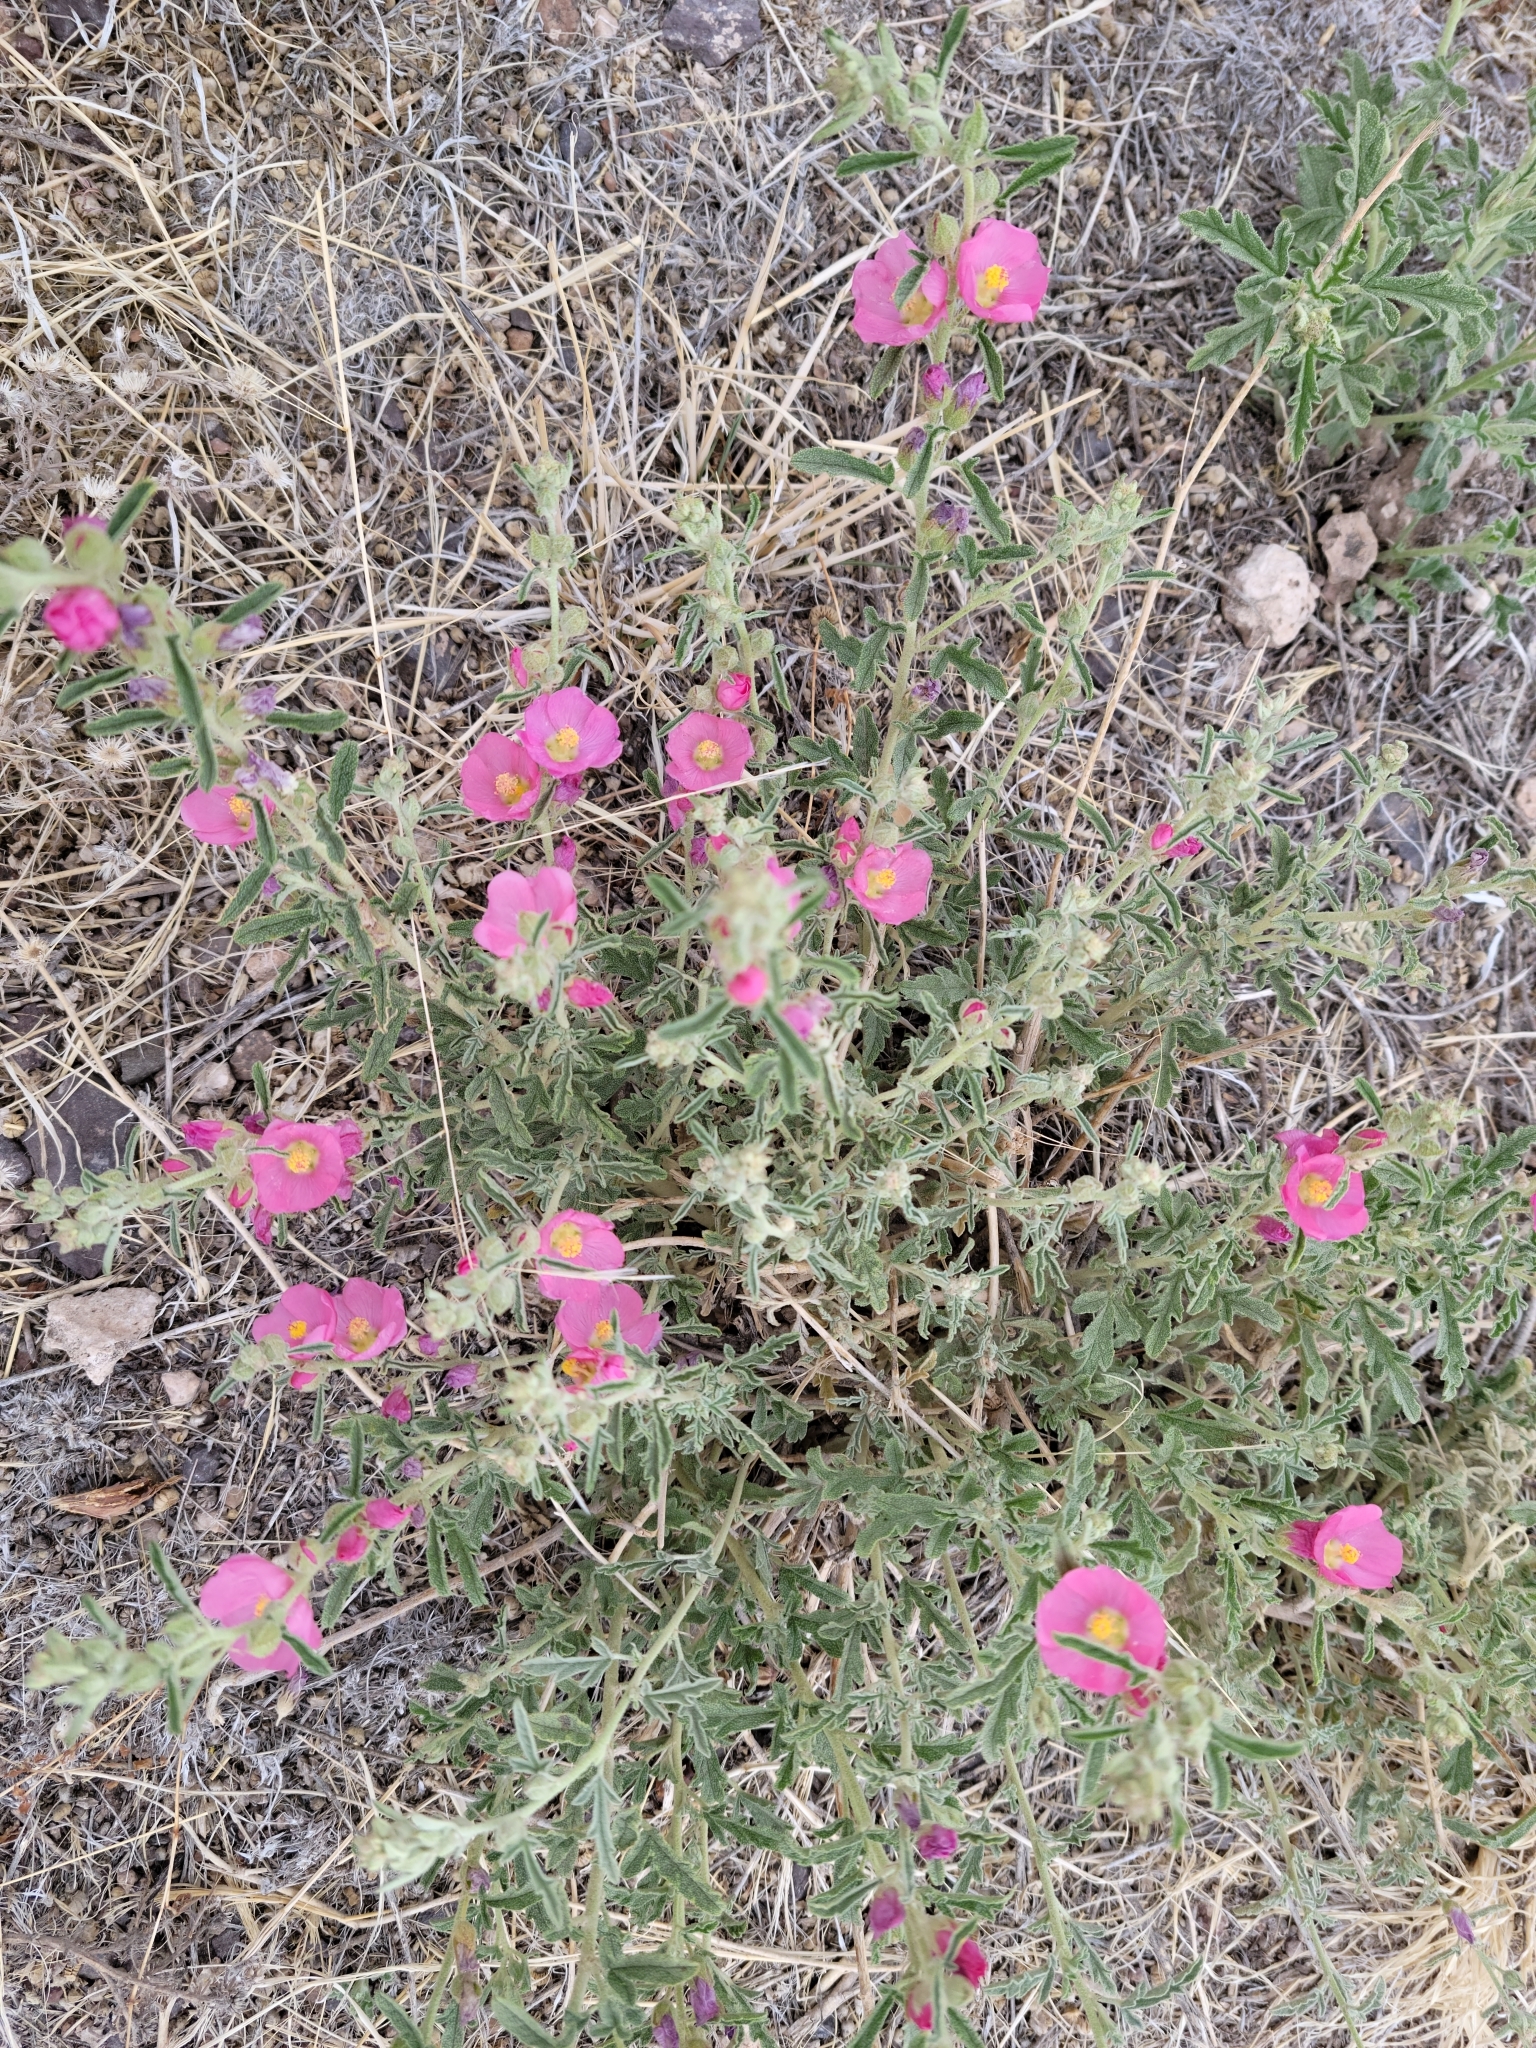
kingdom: Plantae
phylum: Tracheophyta
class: Magnoliopsida
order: Malvales
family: Malvaceae
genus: Sphaeralcea
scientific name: Sphaeralcea angustifolia
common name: Copper globe-mallow
